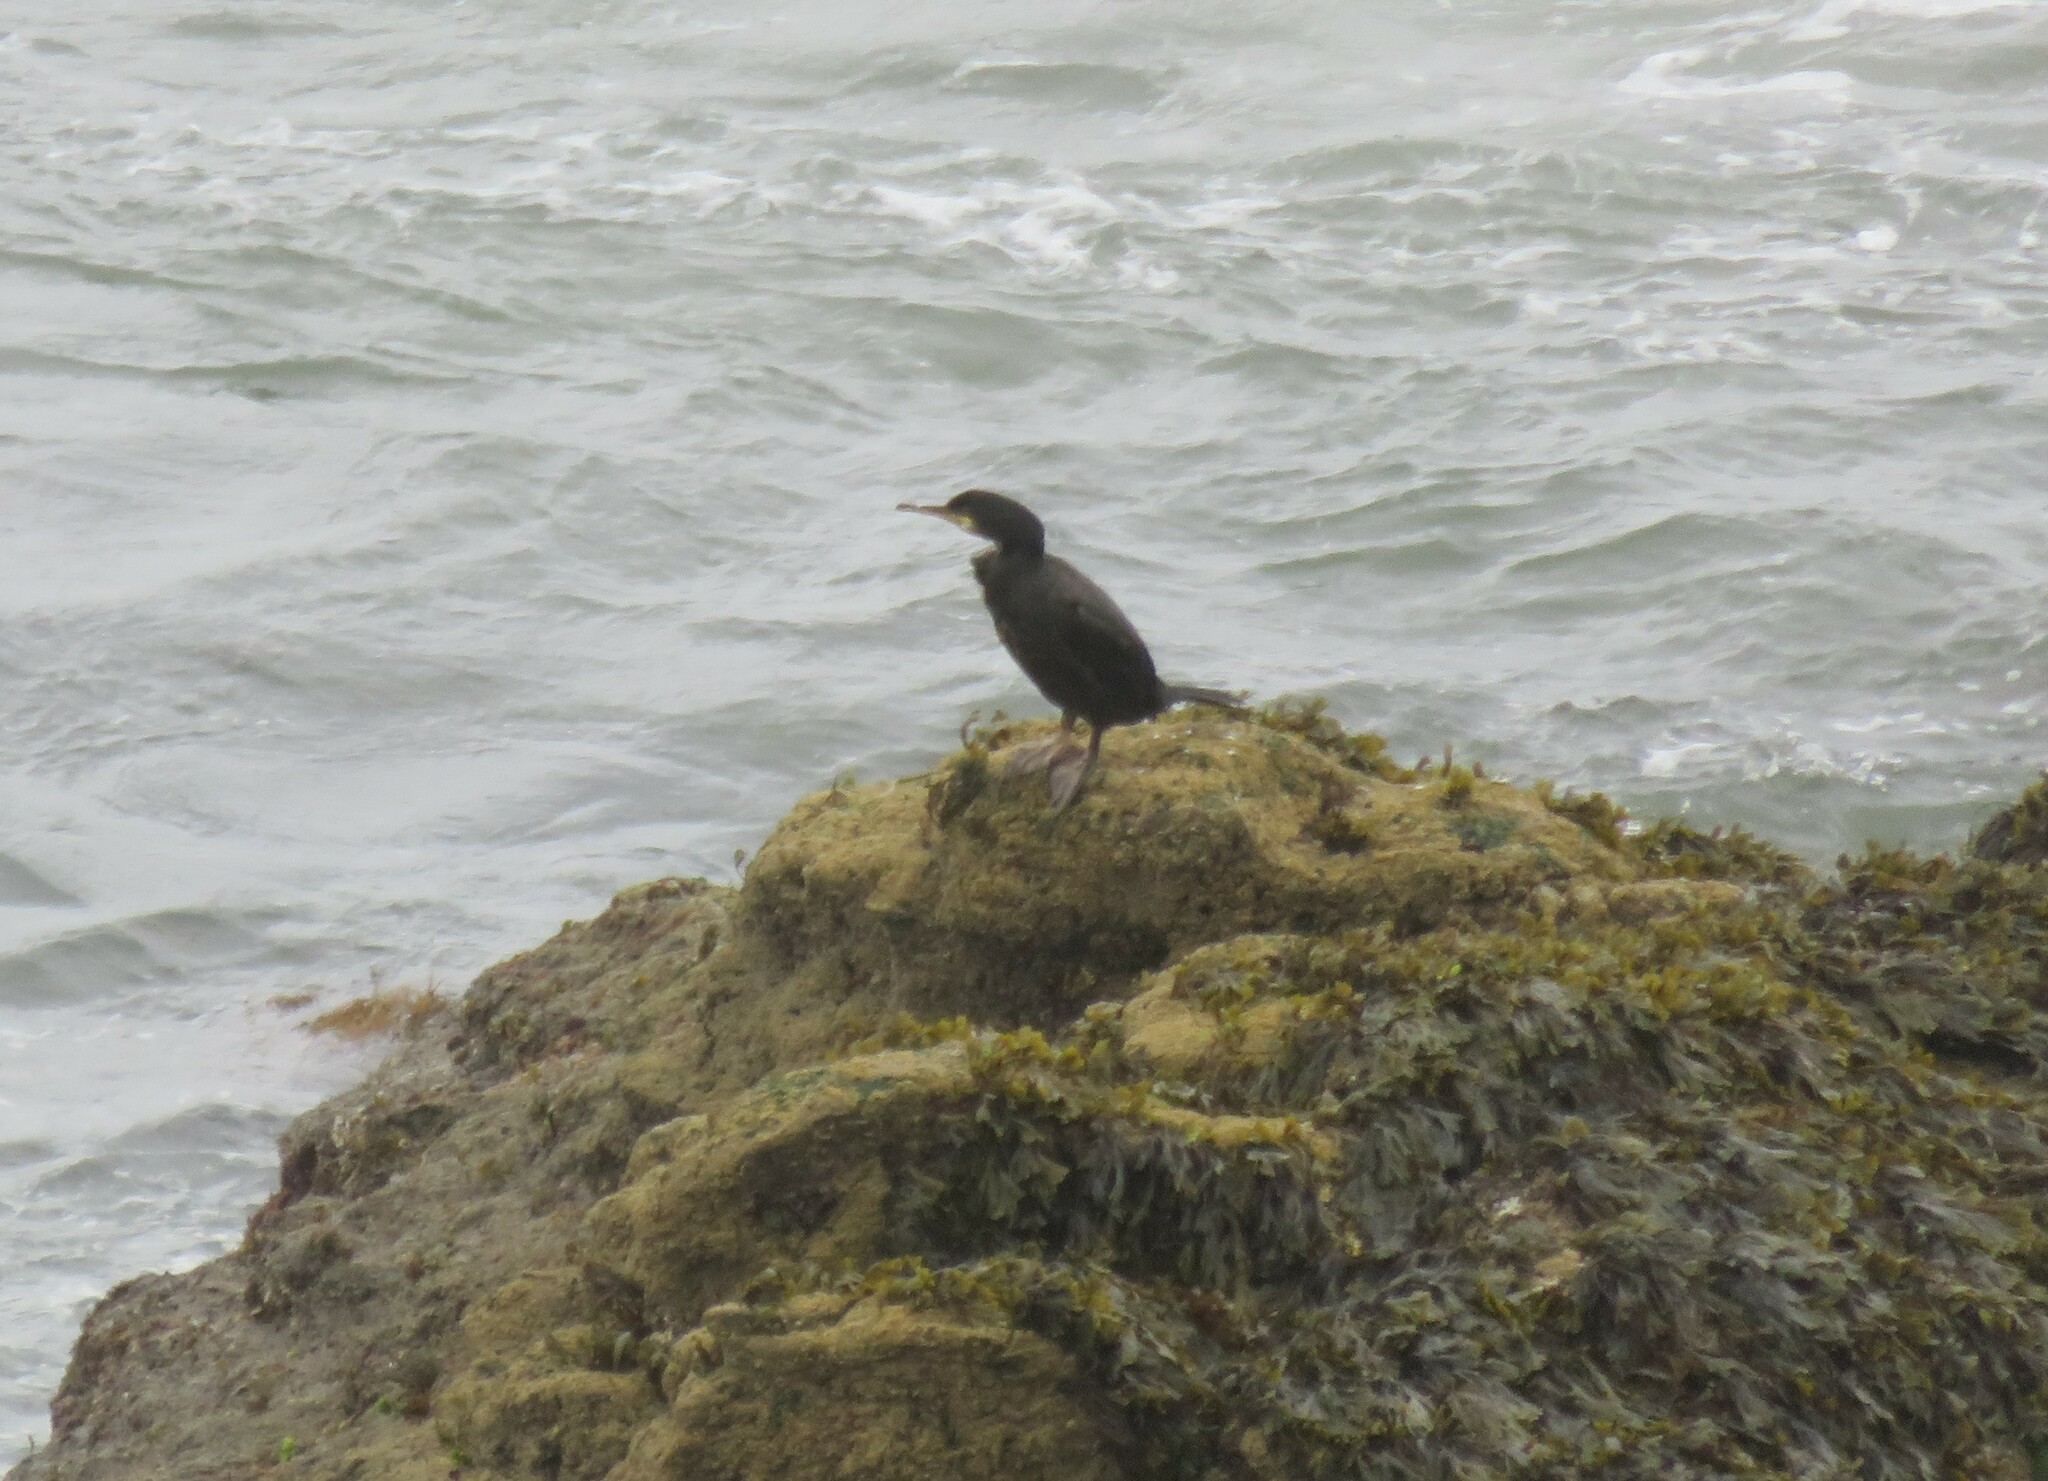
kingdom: Animalia
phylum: Chordata
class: Aves
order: Suliformes
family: Phalacrocoracidae
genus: Phalacrocorax
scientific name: Phalacrocorax aristotelis
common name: European shag
